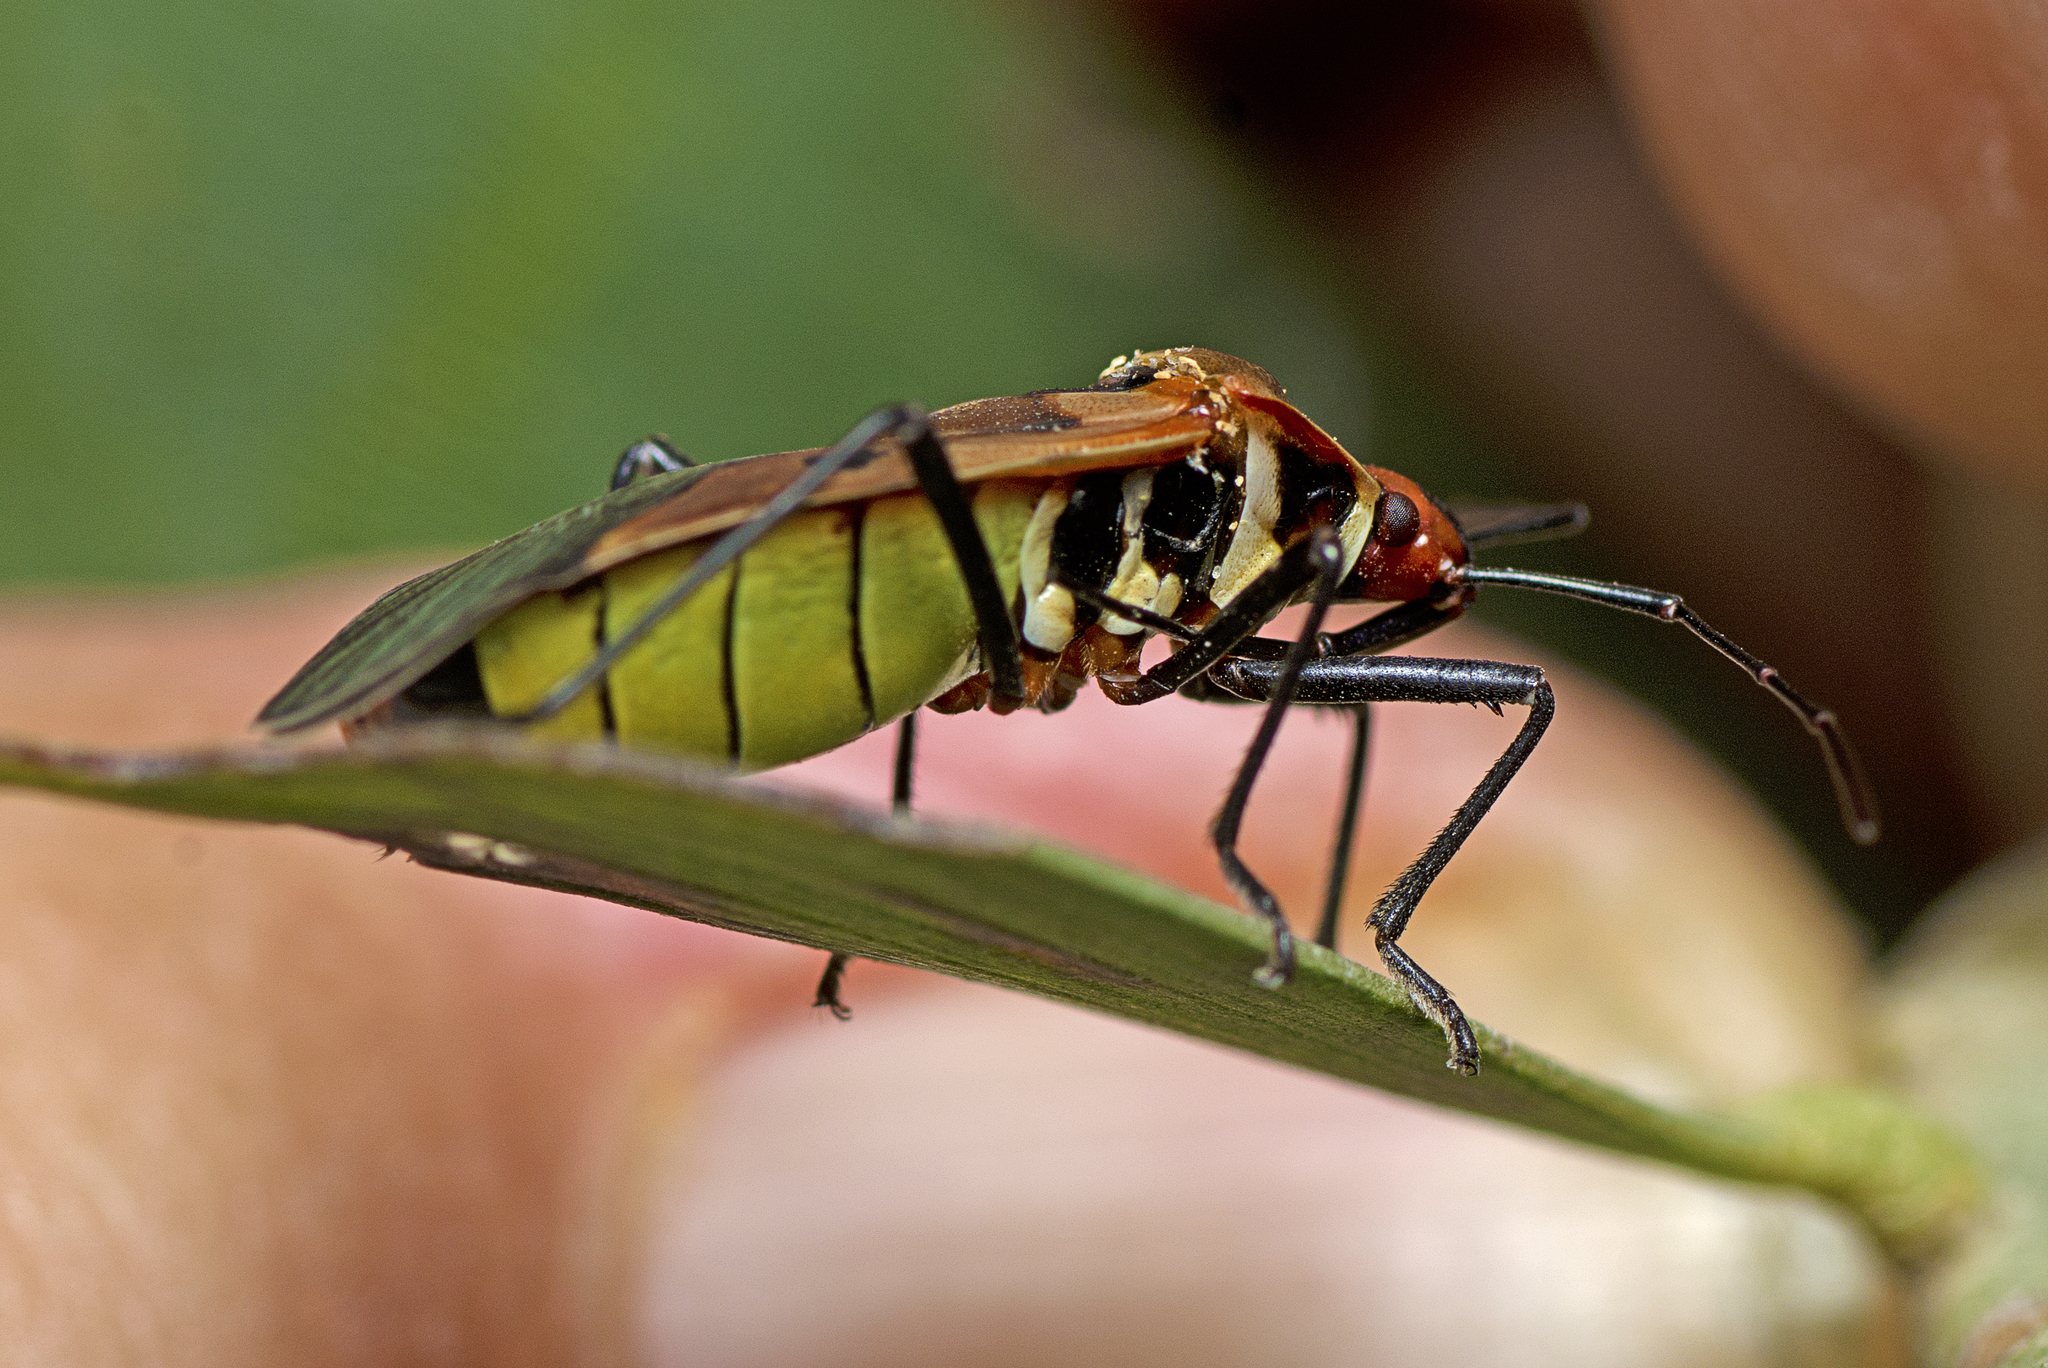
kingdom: Animalia
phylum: Arthropoda
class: Insecta
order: Hemiptera
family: Pyrrhocoridae
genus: Dysdercus
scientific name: Dysdercus sidae
